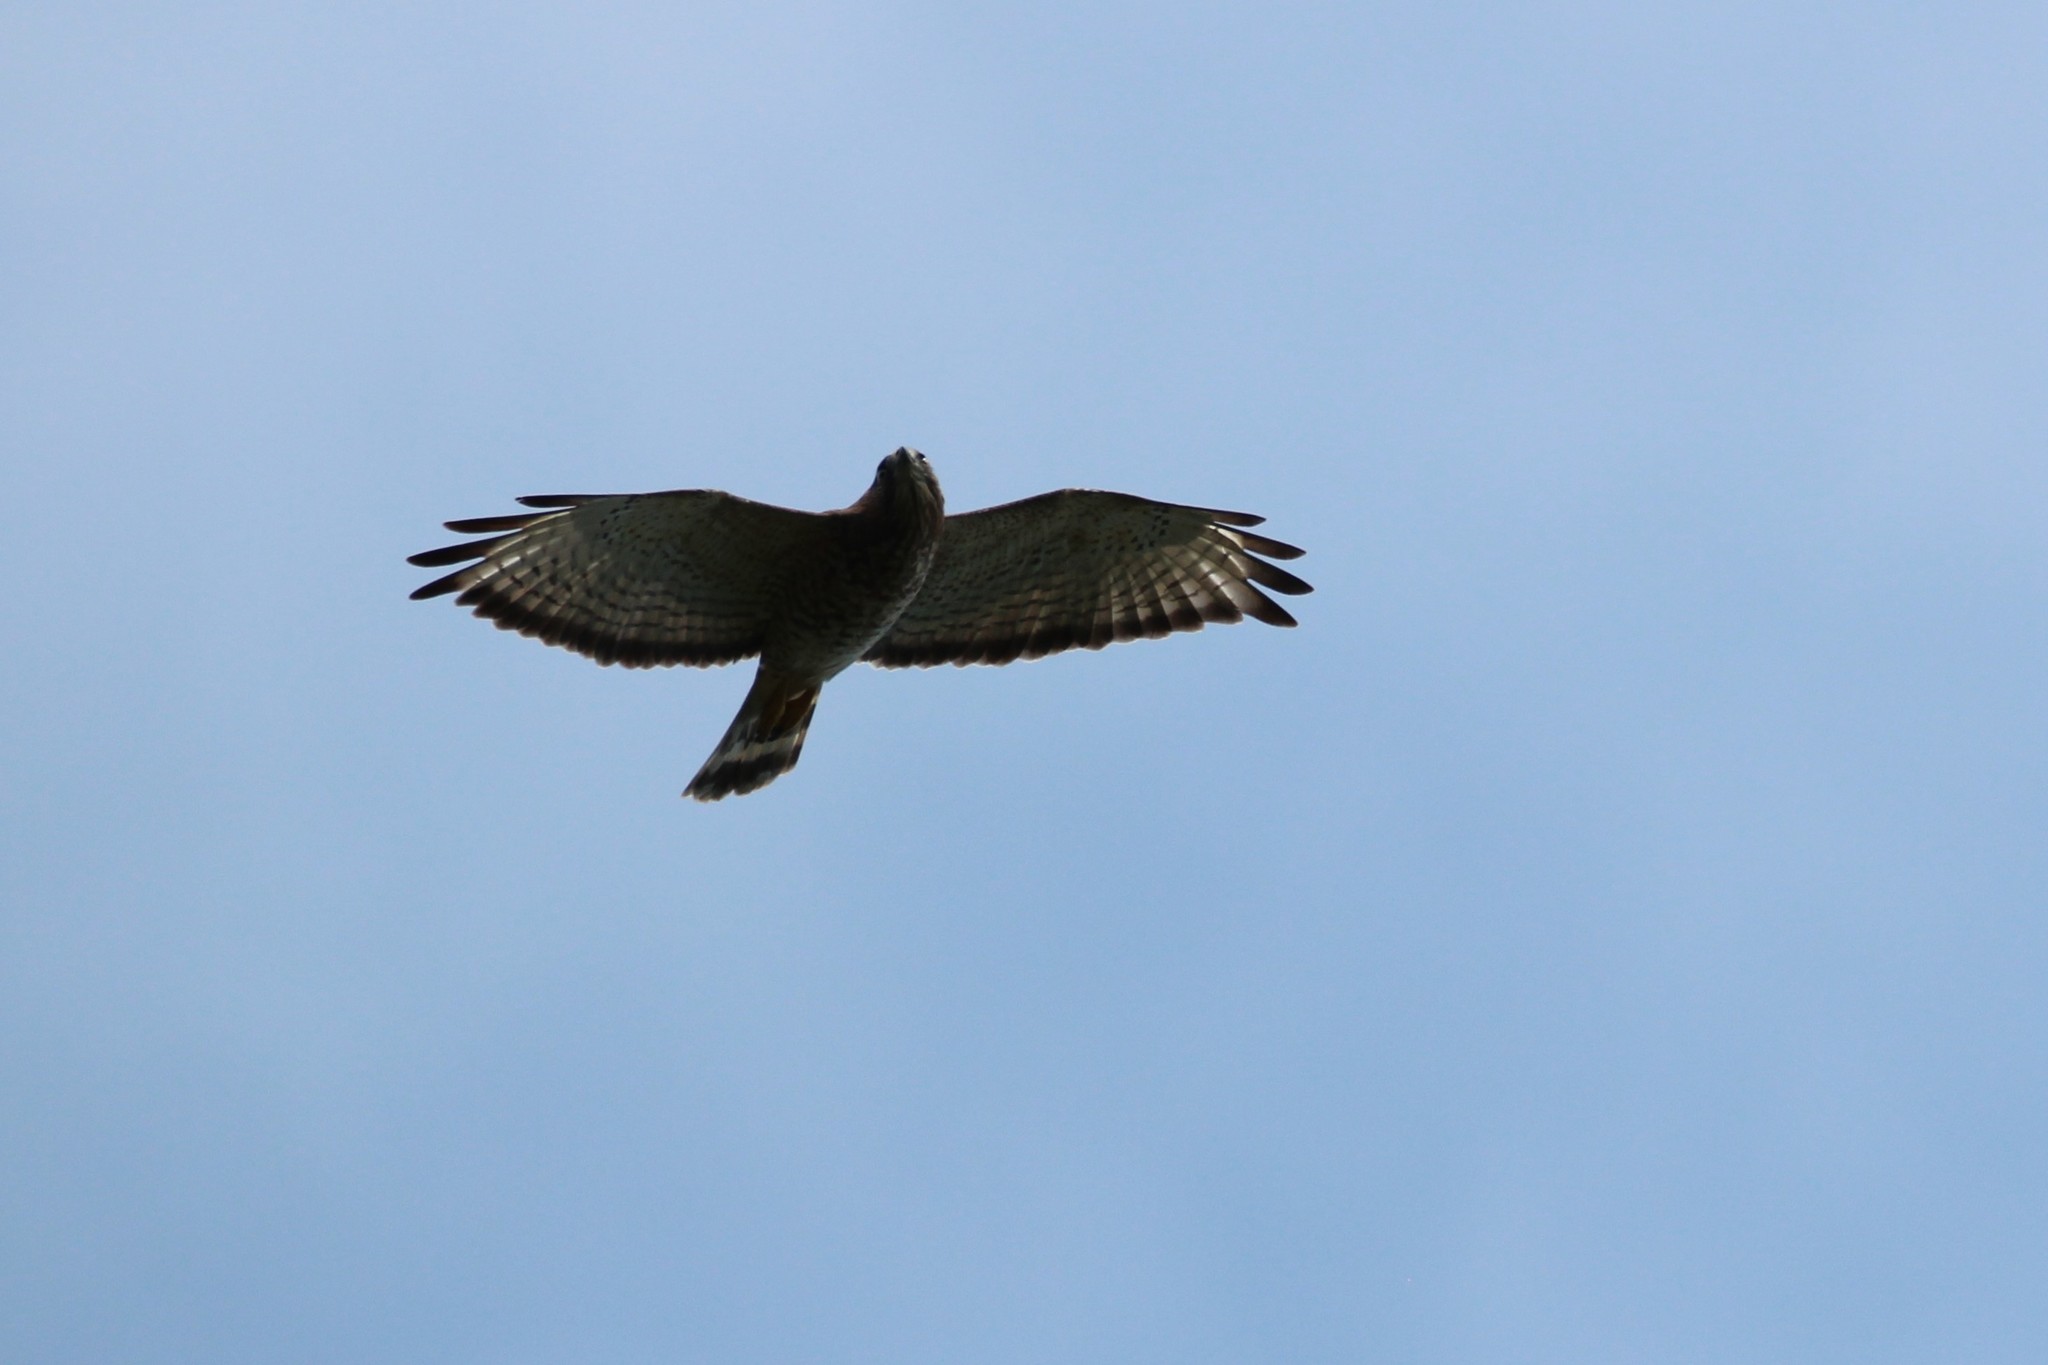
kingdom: Animalia
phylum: Chordata
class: Aves
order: Accipitriformes
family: Accipitridae
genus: Buteo
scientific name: Buteo platypterus
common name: Broad-winged hawk
